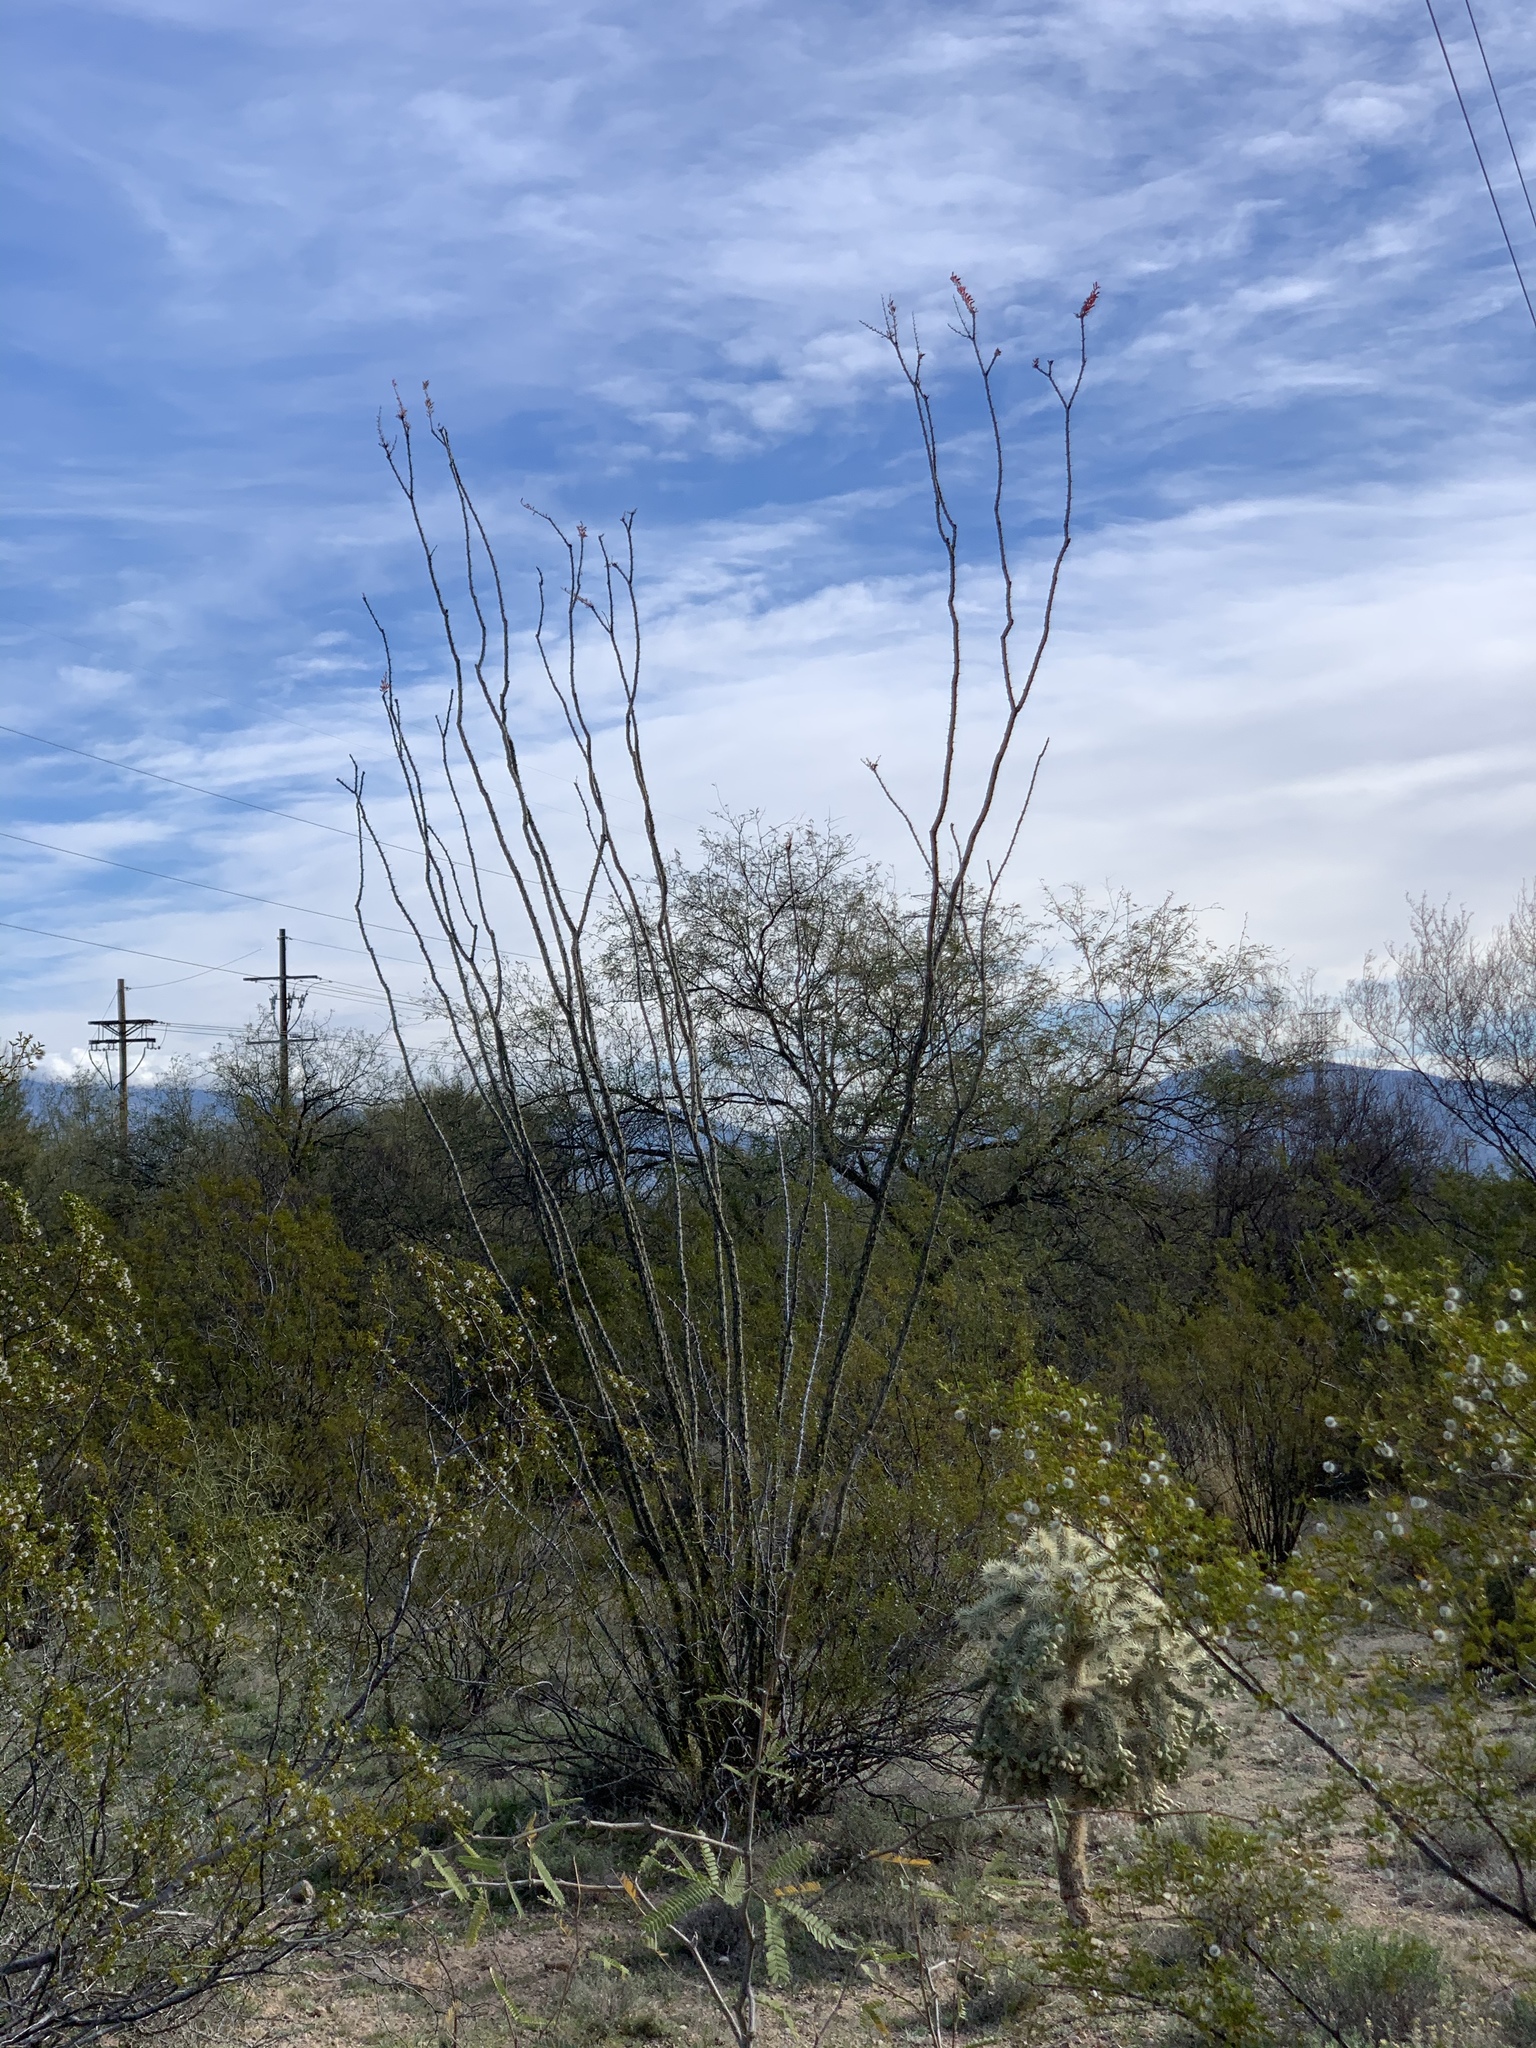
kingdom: Plantae
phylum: Tracheophyta
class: Magnoliopsida
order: Ericales
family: Fouquieriaceae
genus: Fouquieria
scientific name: Fouquieria splendens
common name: Vine-cactus
